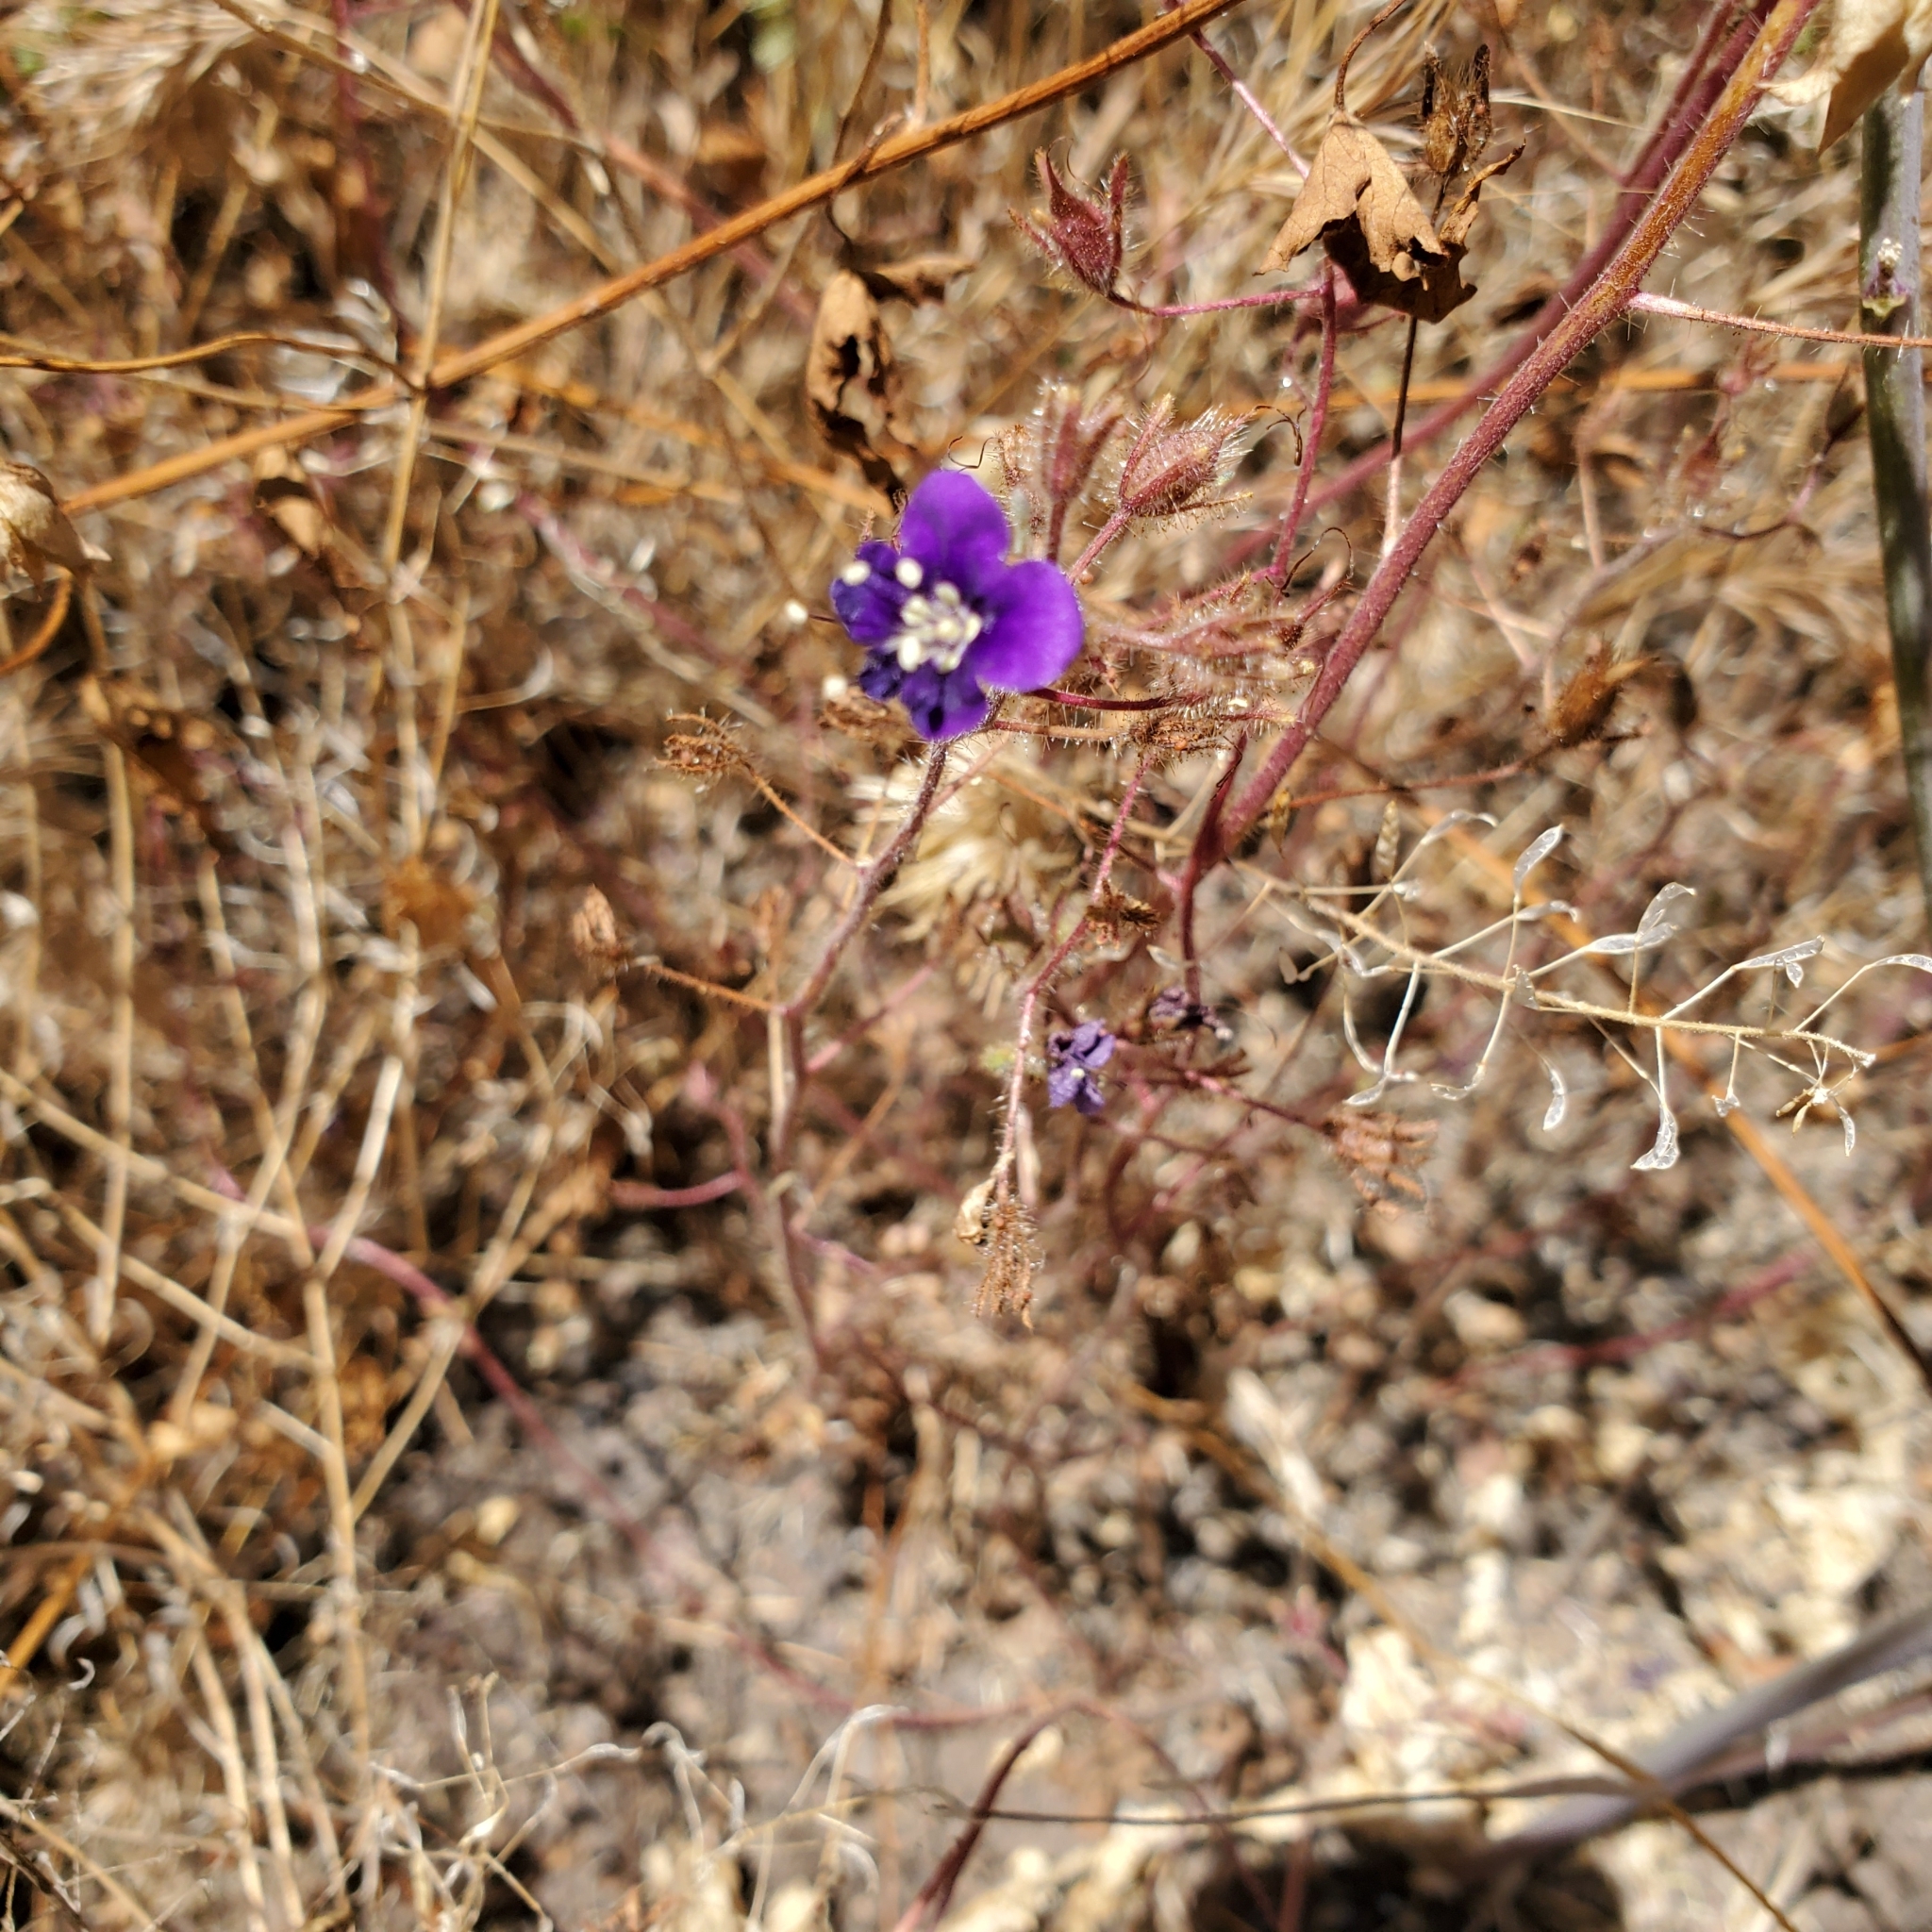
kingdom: Plantae
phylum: Tracheophyta
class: Magnoliopsida
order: Boraginales
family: Hydrophyllaceae
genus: Phacelia
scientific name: Phacelia parryi
